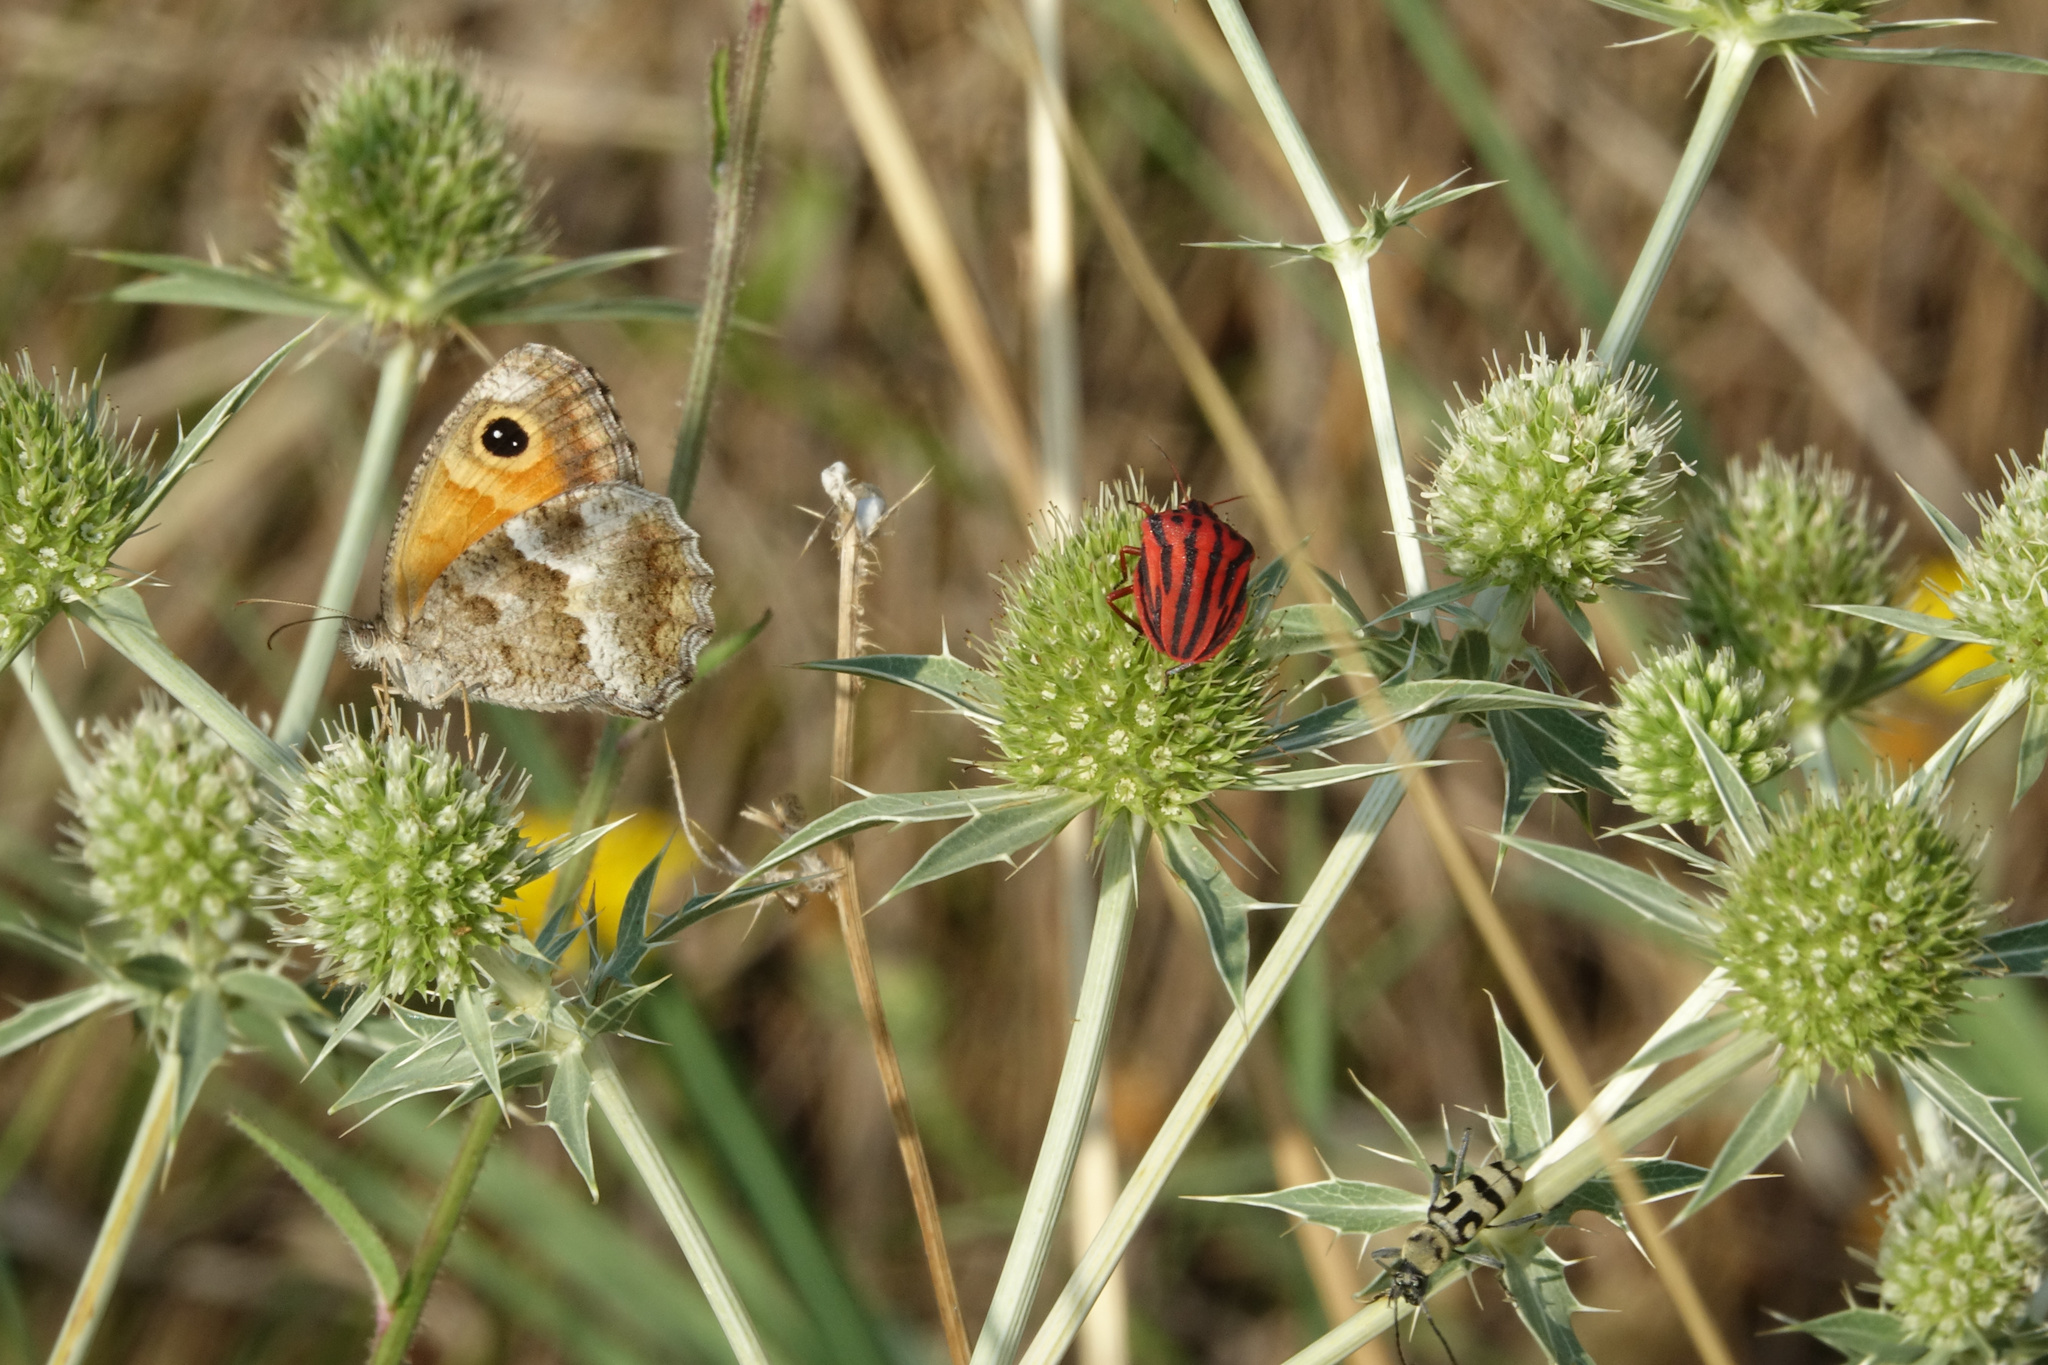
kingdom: Animalia
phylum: Arthropoda
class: Insecta
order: Lepidoptera
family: Nymphalidae
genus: Pyronia
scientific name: Pyronia cecilia
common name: Southern gatekeeper
